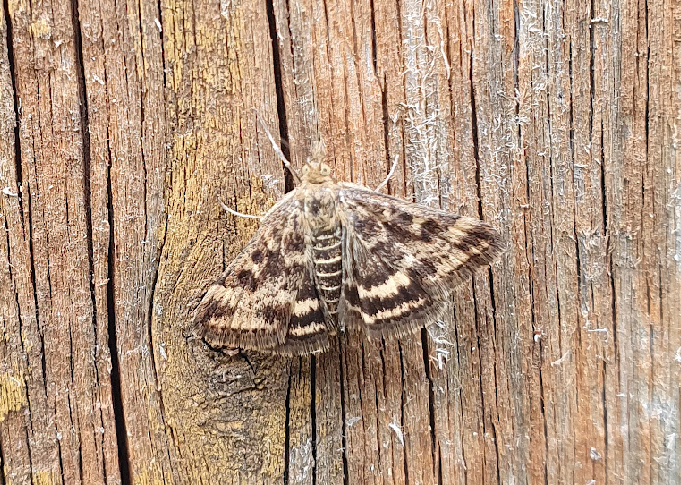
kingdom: Animalia
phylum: Arthropoda
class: Insecta
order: Lepidoptera
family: Crambidae
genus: Pyrausta
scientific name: Pyrausta despicata
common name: Straw-barred pearl
